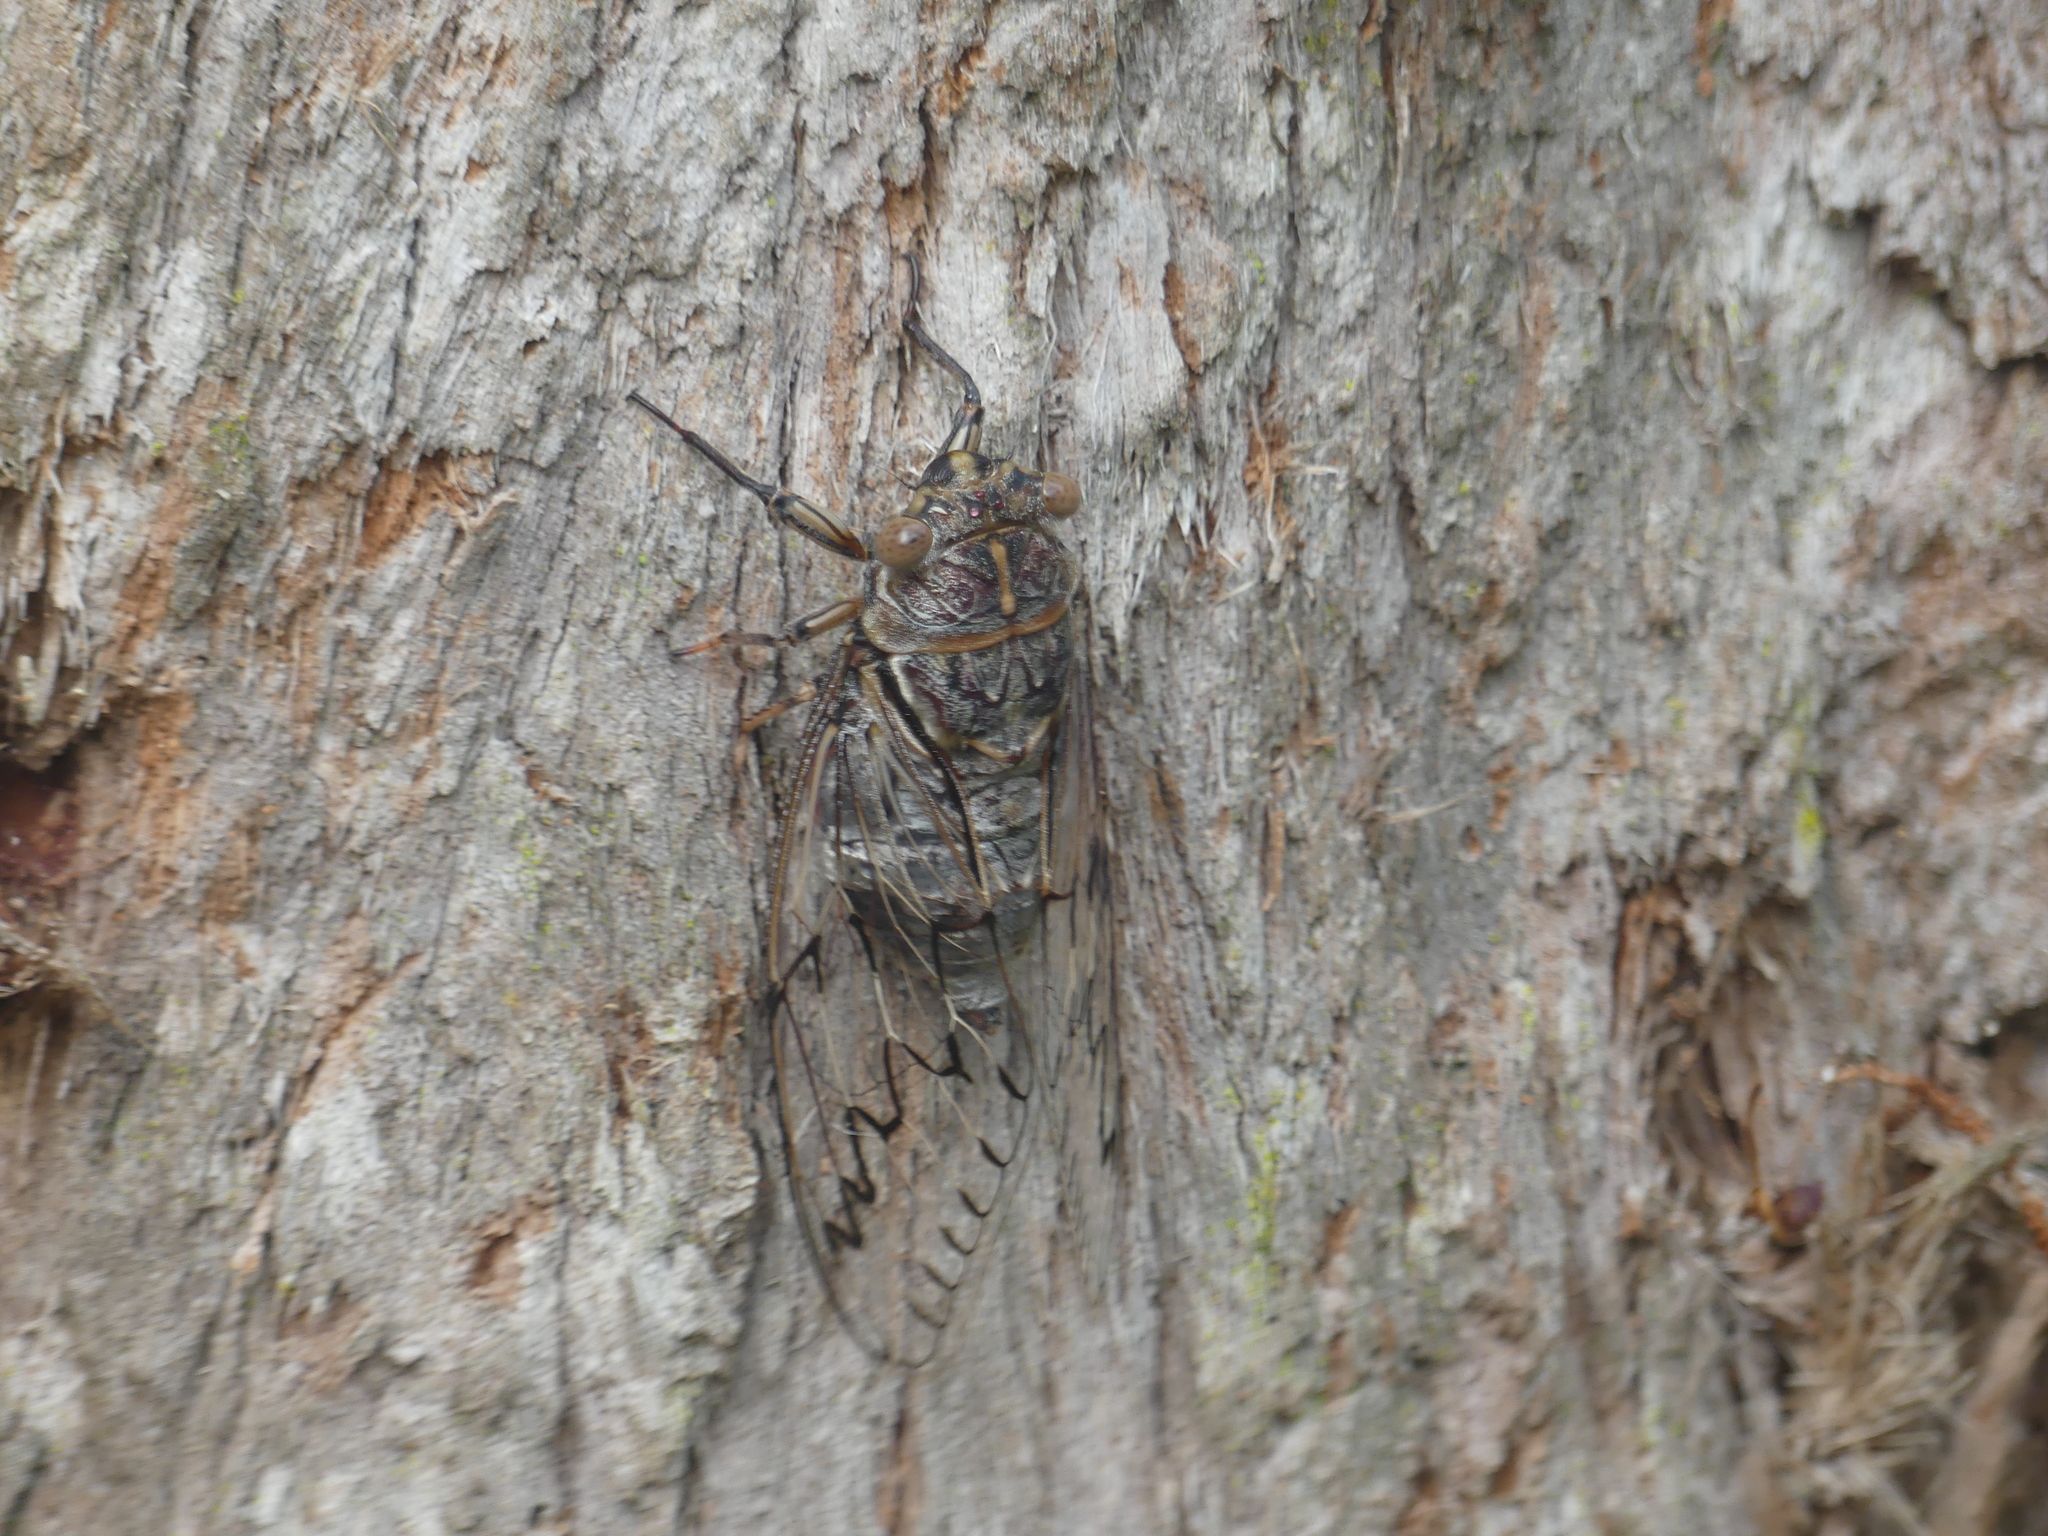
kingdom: Animalia
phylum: Arthropoda
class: Insecta
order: Hemiptera
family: Cicadidae
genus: Henicopsaltria
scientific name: Henicopsaltria eydouxii
